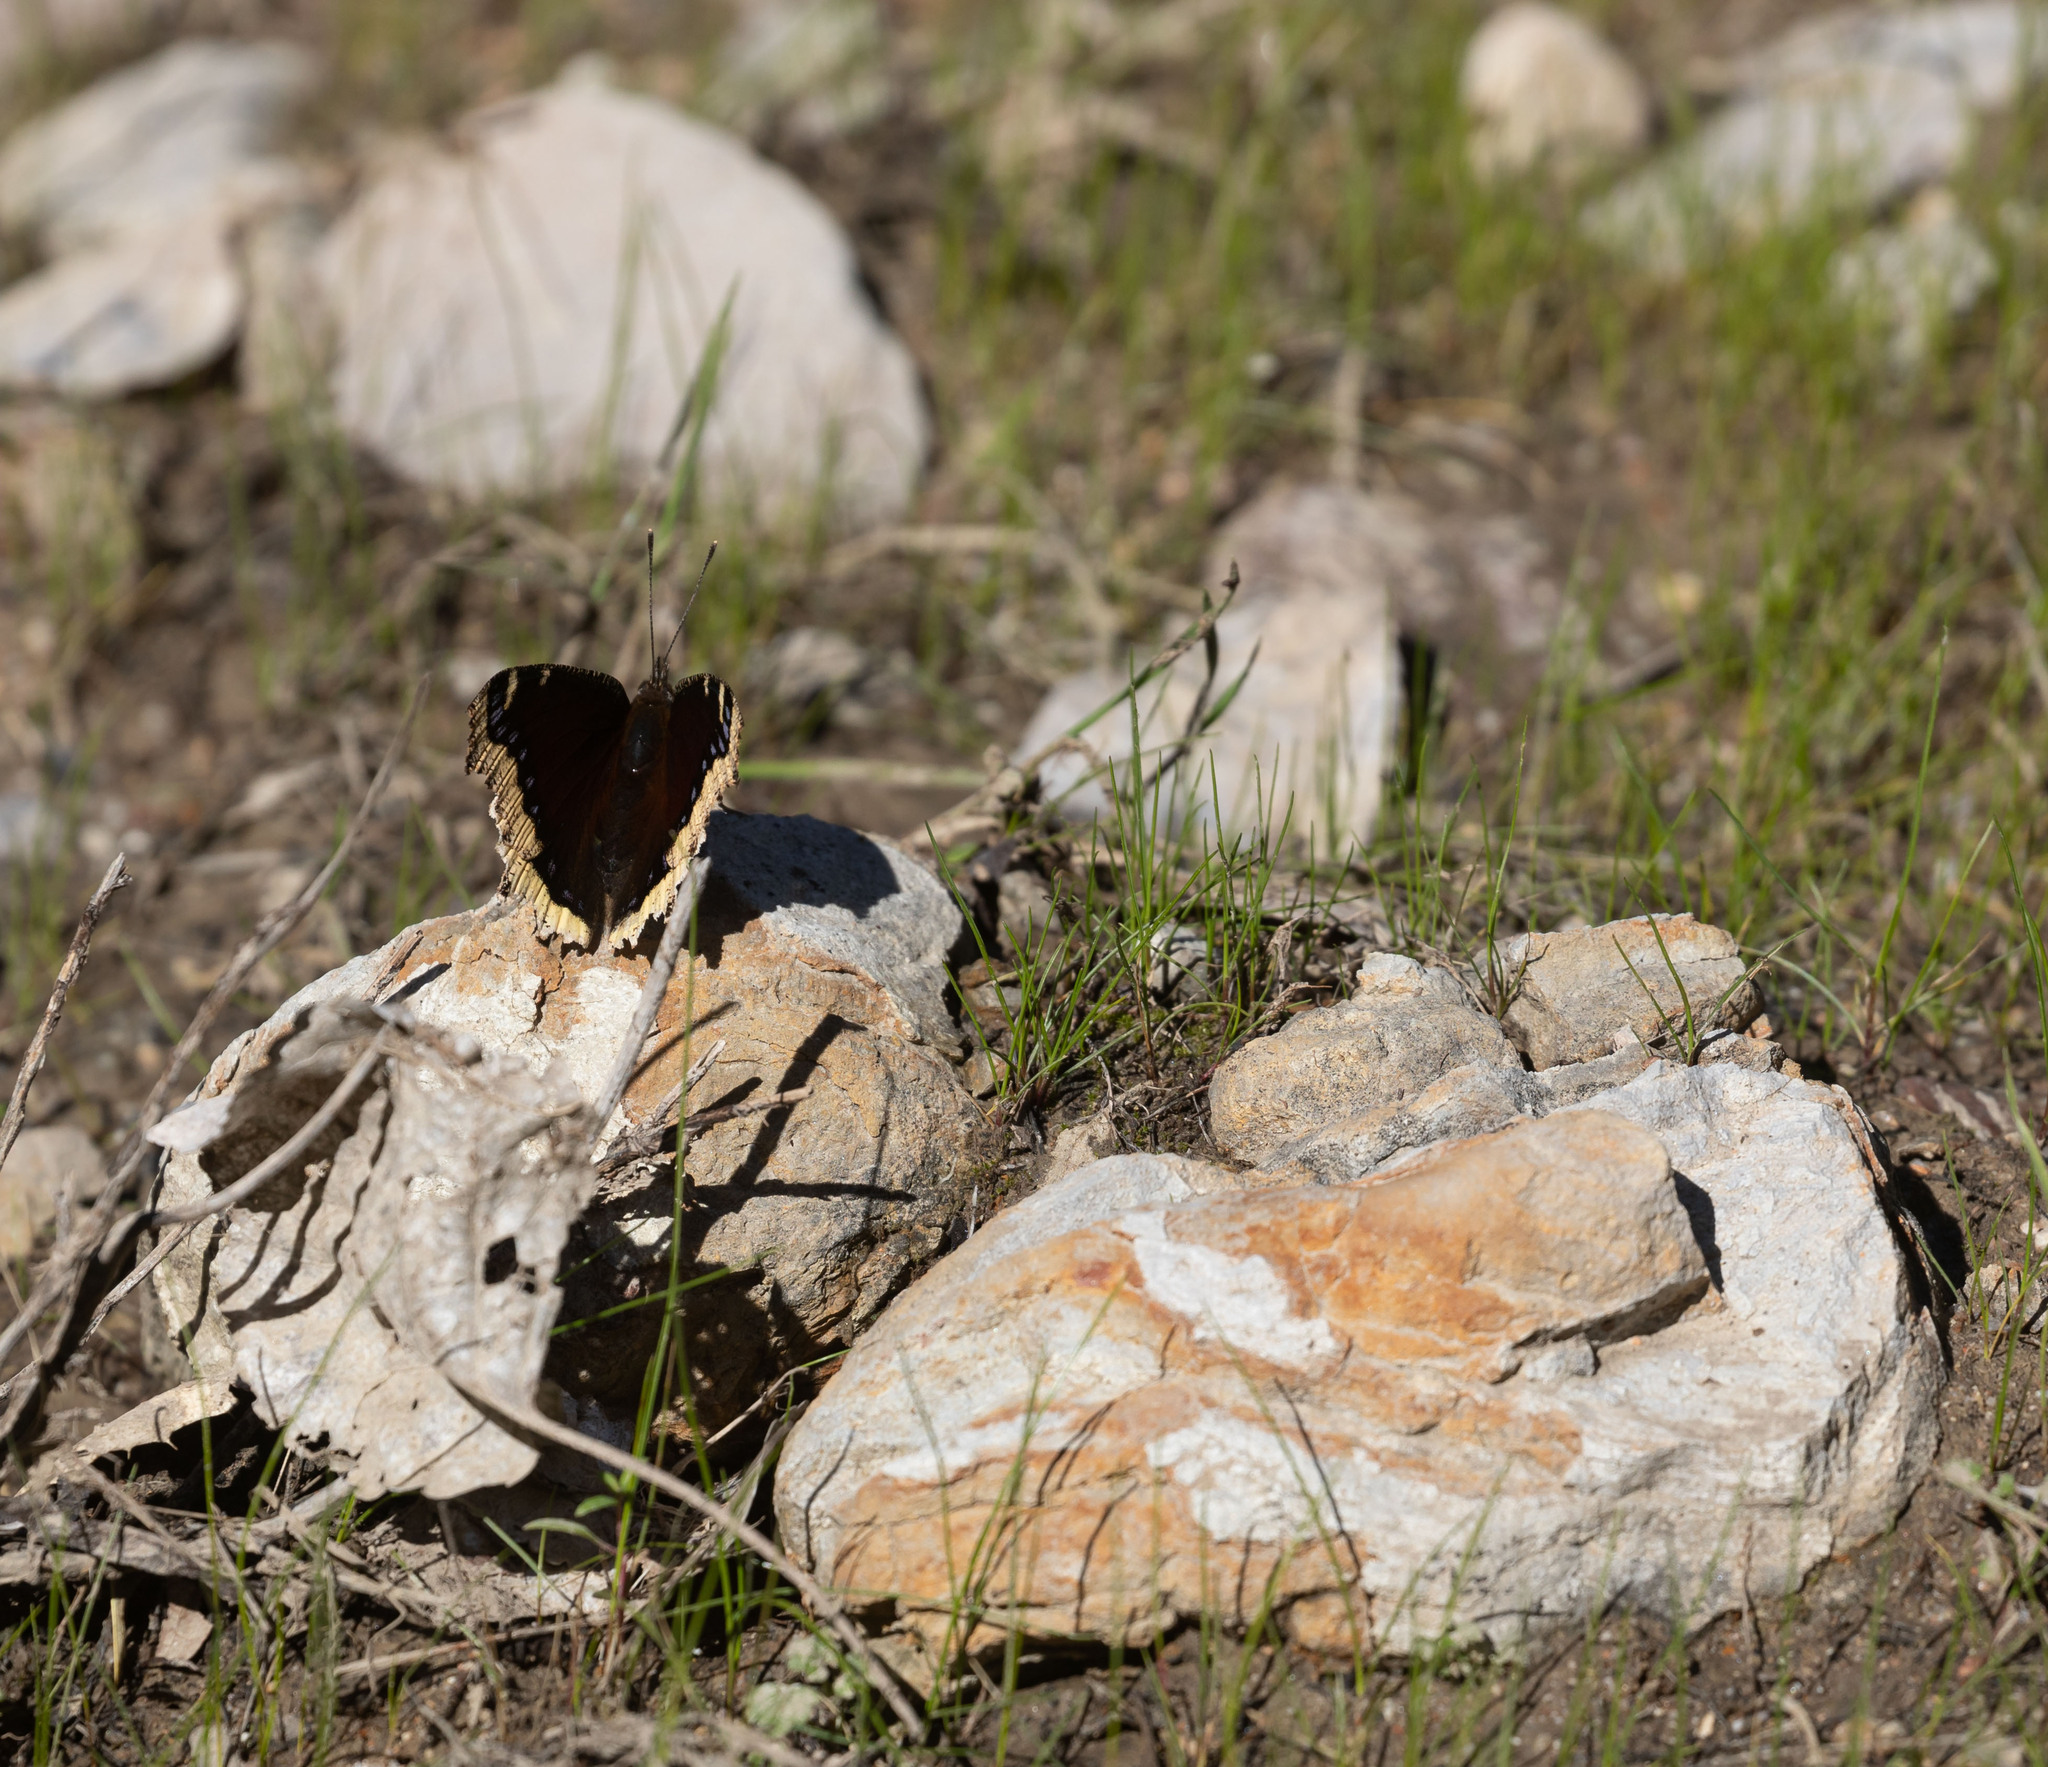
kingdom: Animalia
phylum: Arthropoda
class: Insecta
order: Lepidoptera
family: Nymphalidae
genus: Nymphalis
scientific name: Nymphalis antiopa
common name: Camberwell beauty
